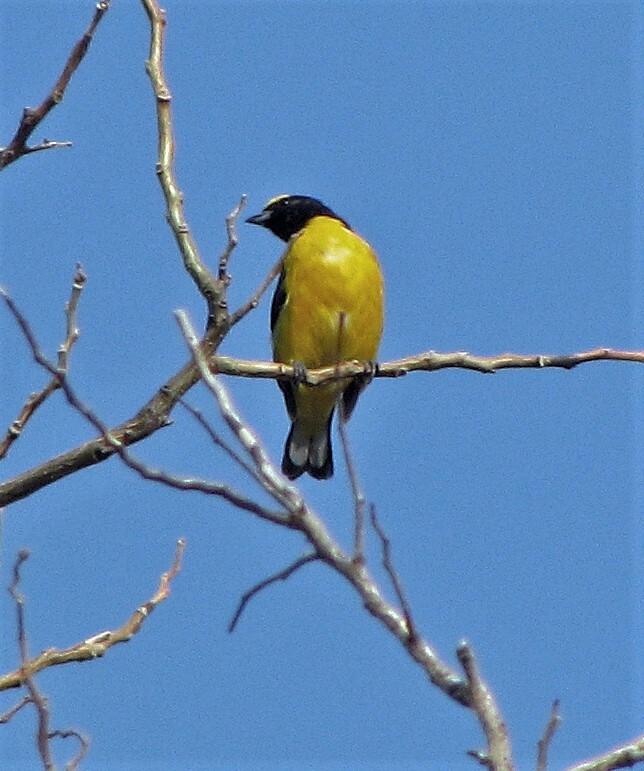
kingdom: Animalia
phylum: Chordata
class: Aves
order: Passeriformes
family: Fringillidae
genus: Euphonia
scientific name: Euphonia chlorotica
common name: Purple-throated euphonia
